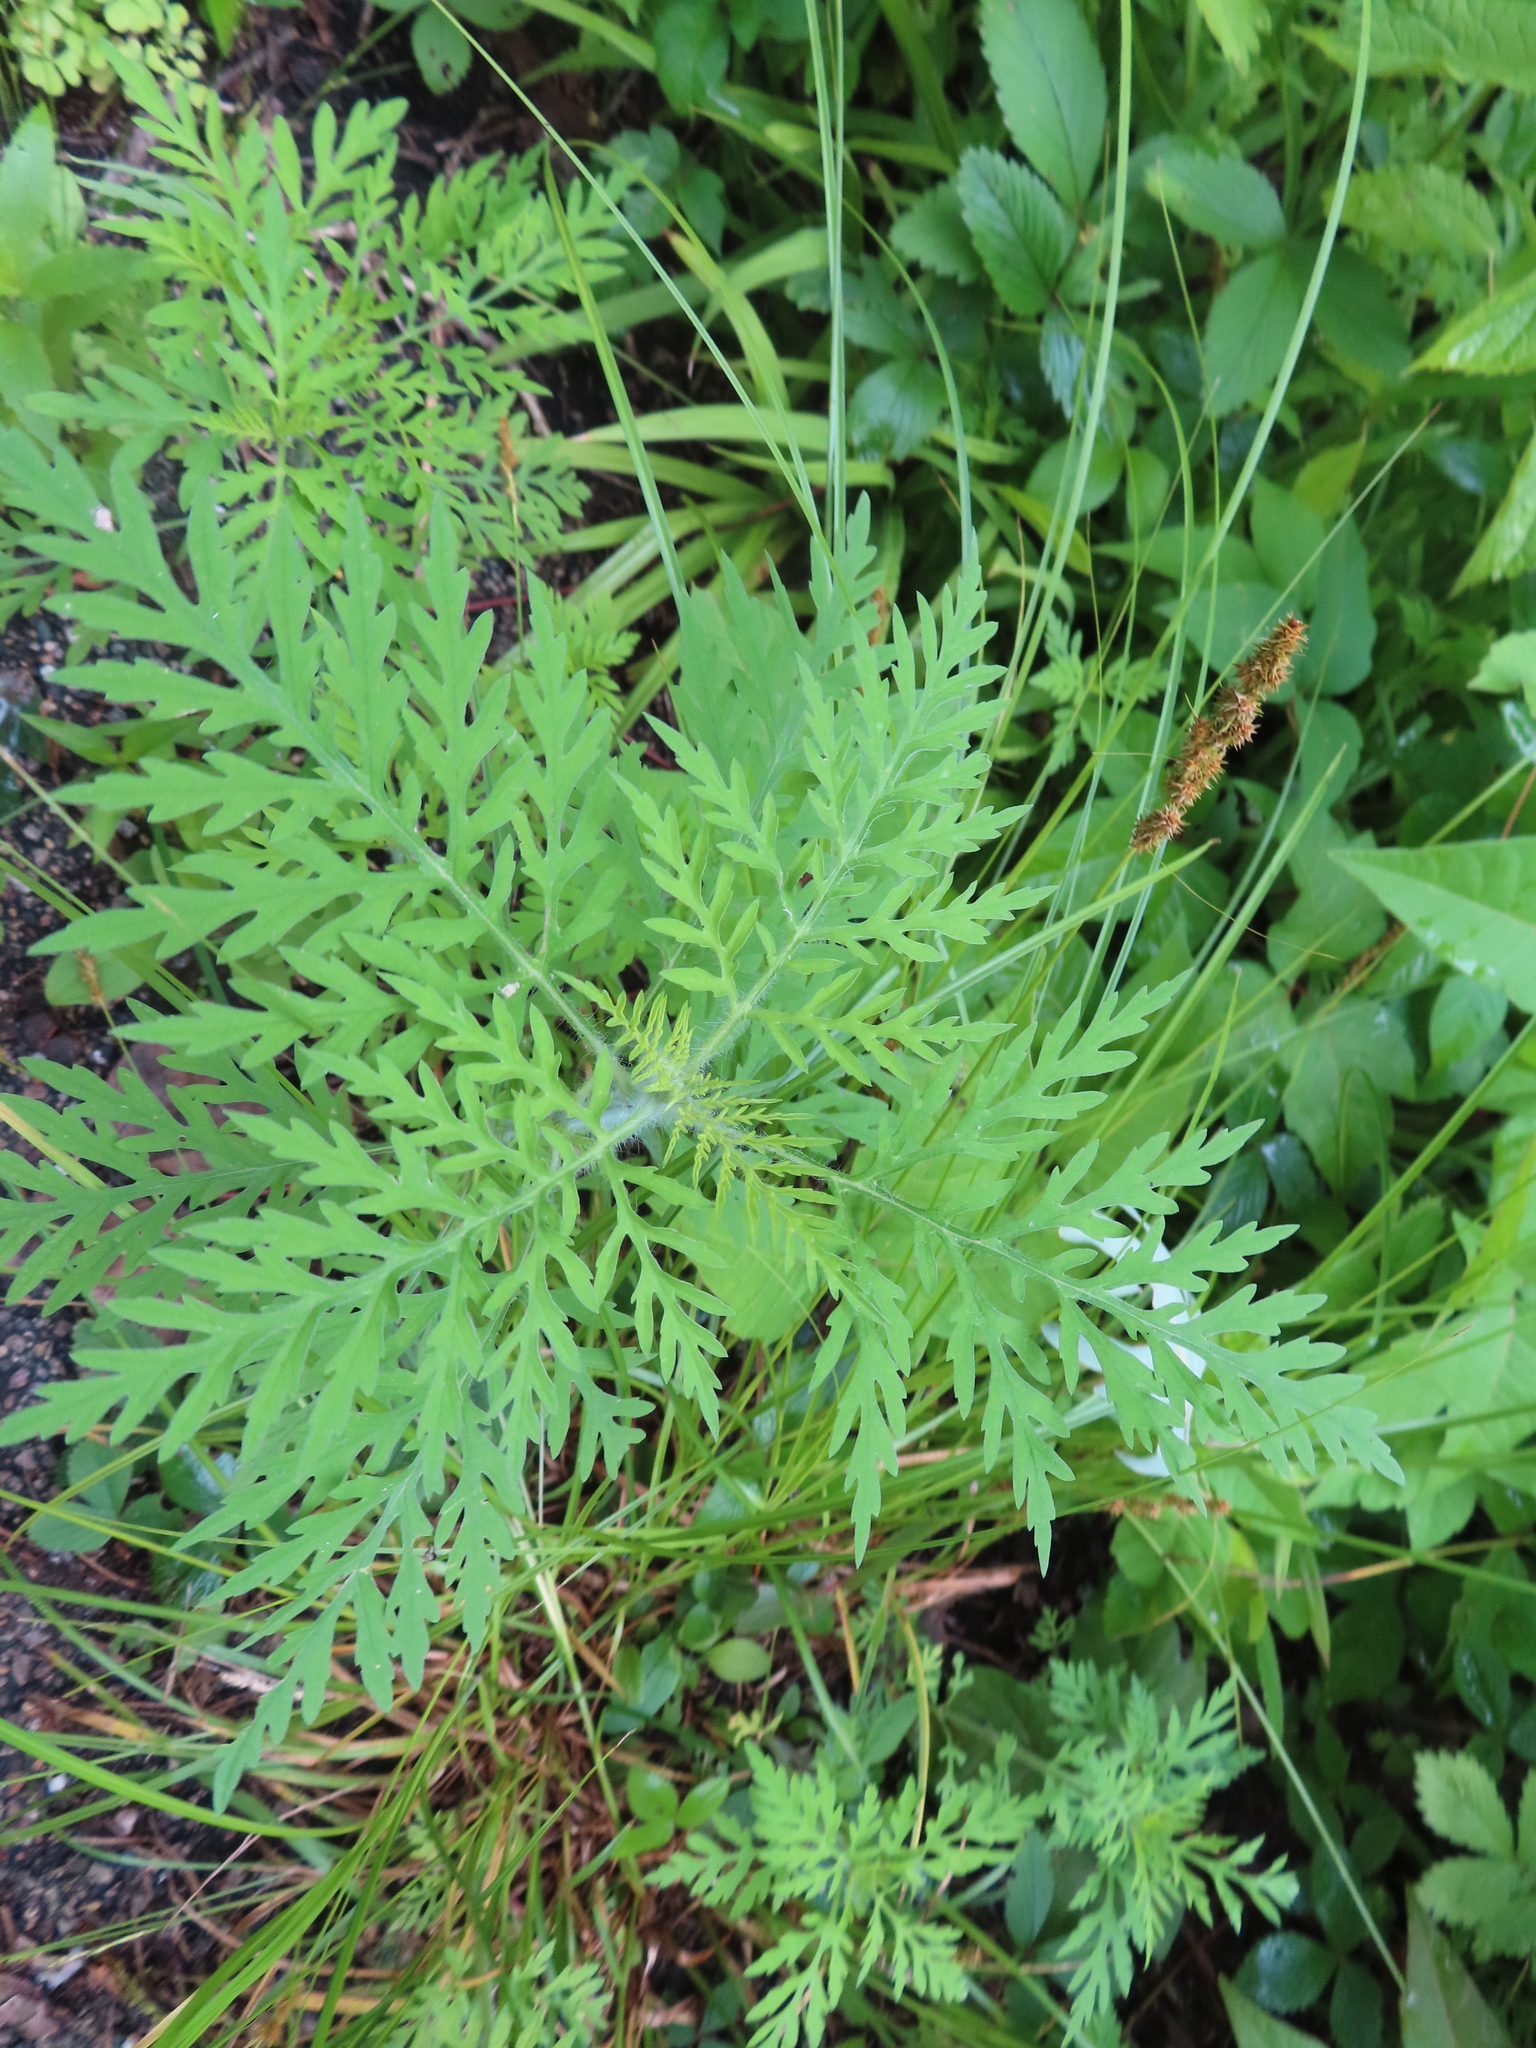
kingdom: Plantae
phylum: Tracheophyta
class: Magnoliopsida
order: Asterales
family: Asteraceae
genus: Ambrosia
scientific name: Ambrosia artemisiifolia
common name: Annual ragweed
